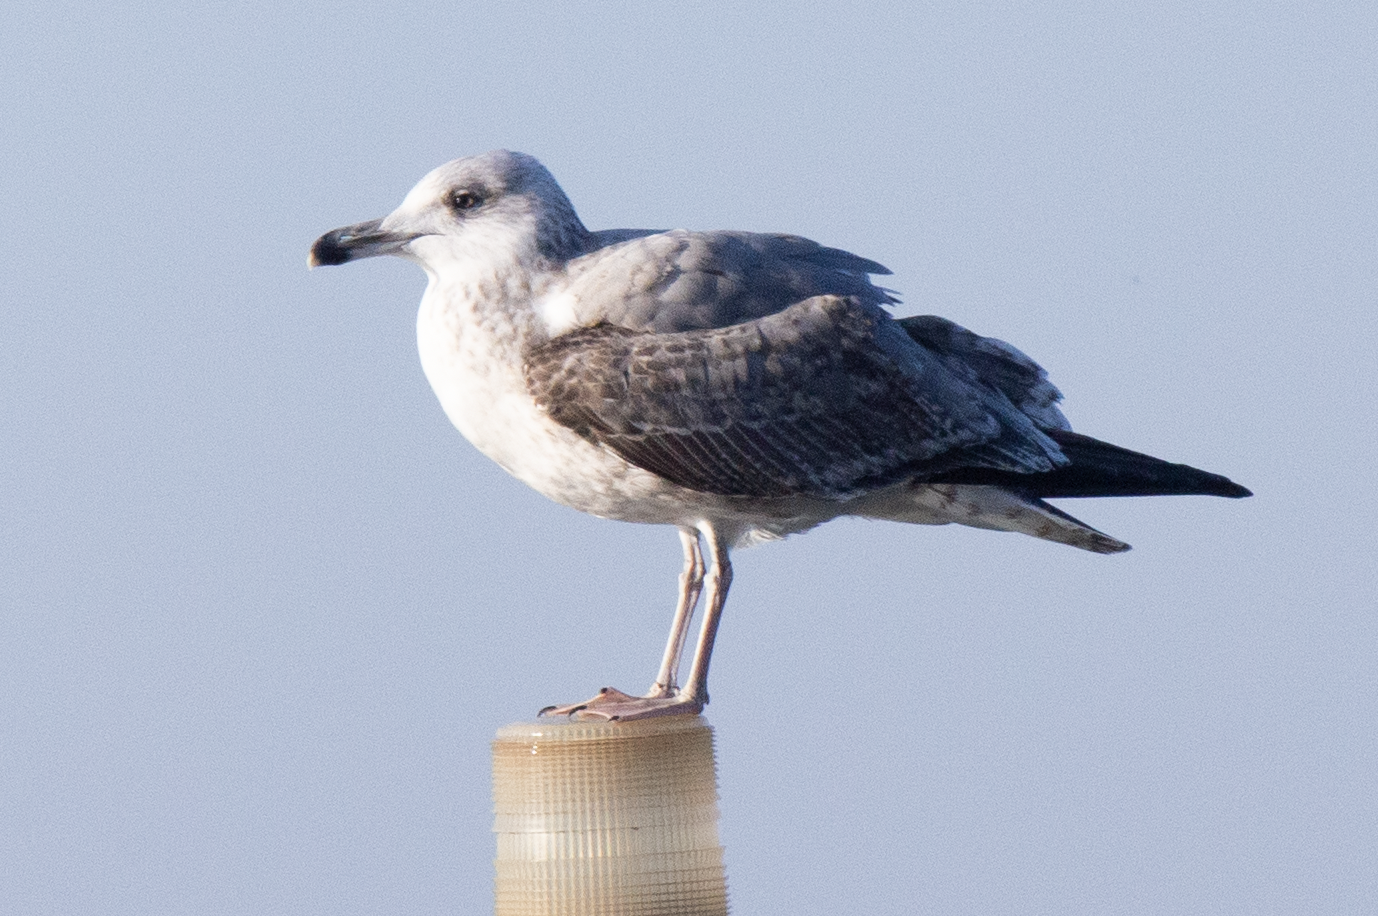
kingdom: Animalia
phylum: Chordata
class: Aves
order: Charadriiformes
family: Laridae
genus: Larus
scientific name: Larus michahellis
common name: Yellow-legged gull
